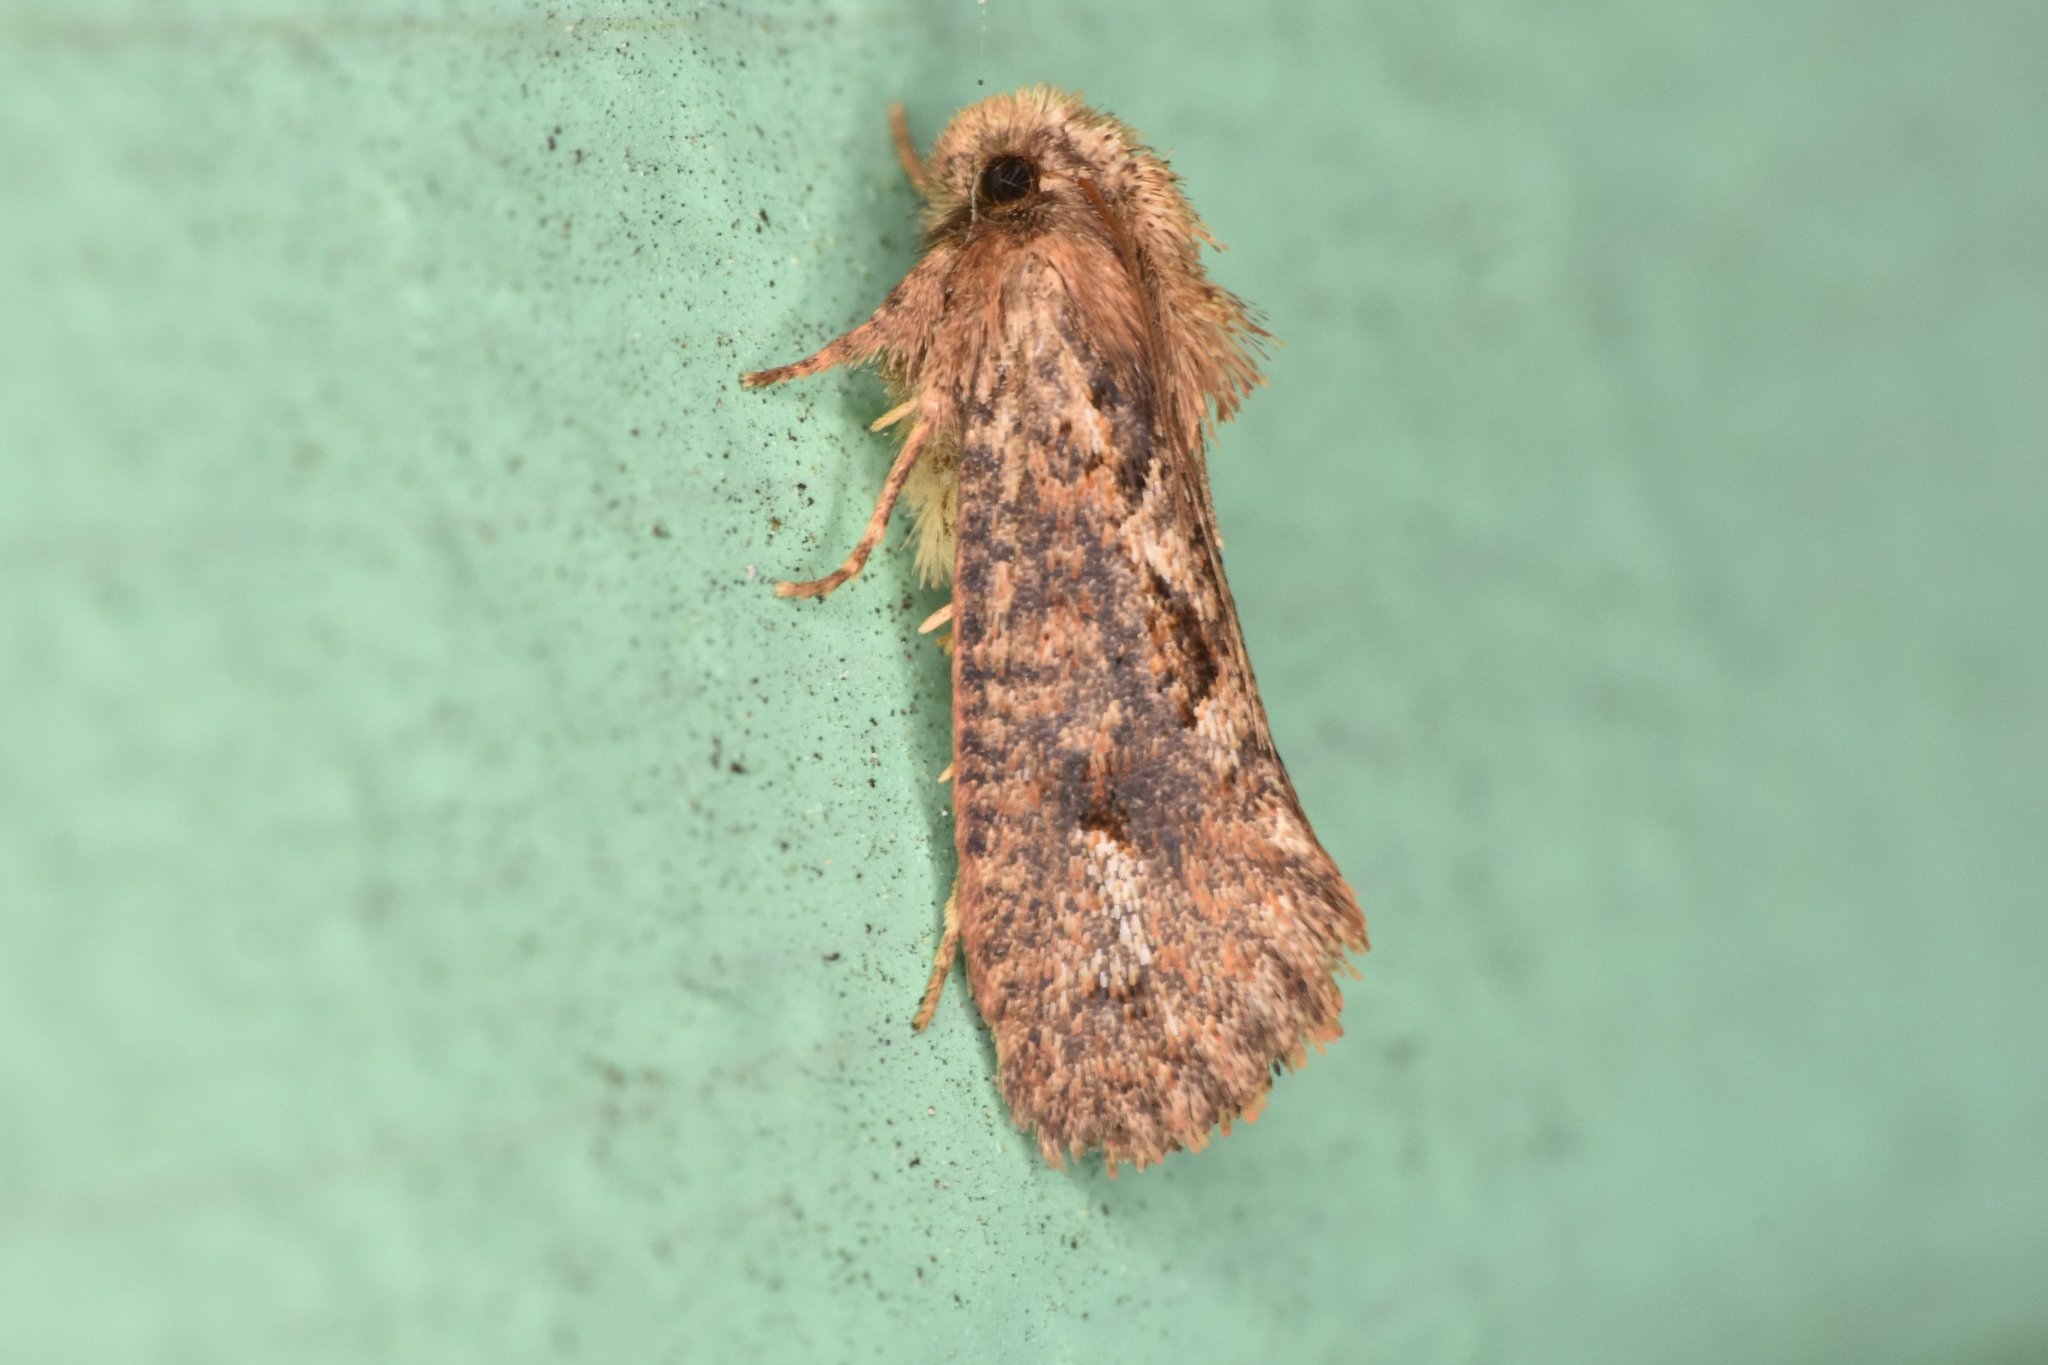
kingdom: Animalia
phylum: Arthropoda
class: Insecta
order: Lepidoptera
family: Tineidae
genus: Acrolophus
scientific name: Acrolophus walsinghami
